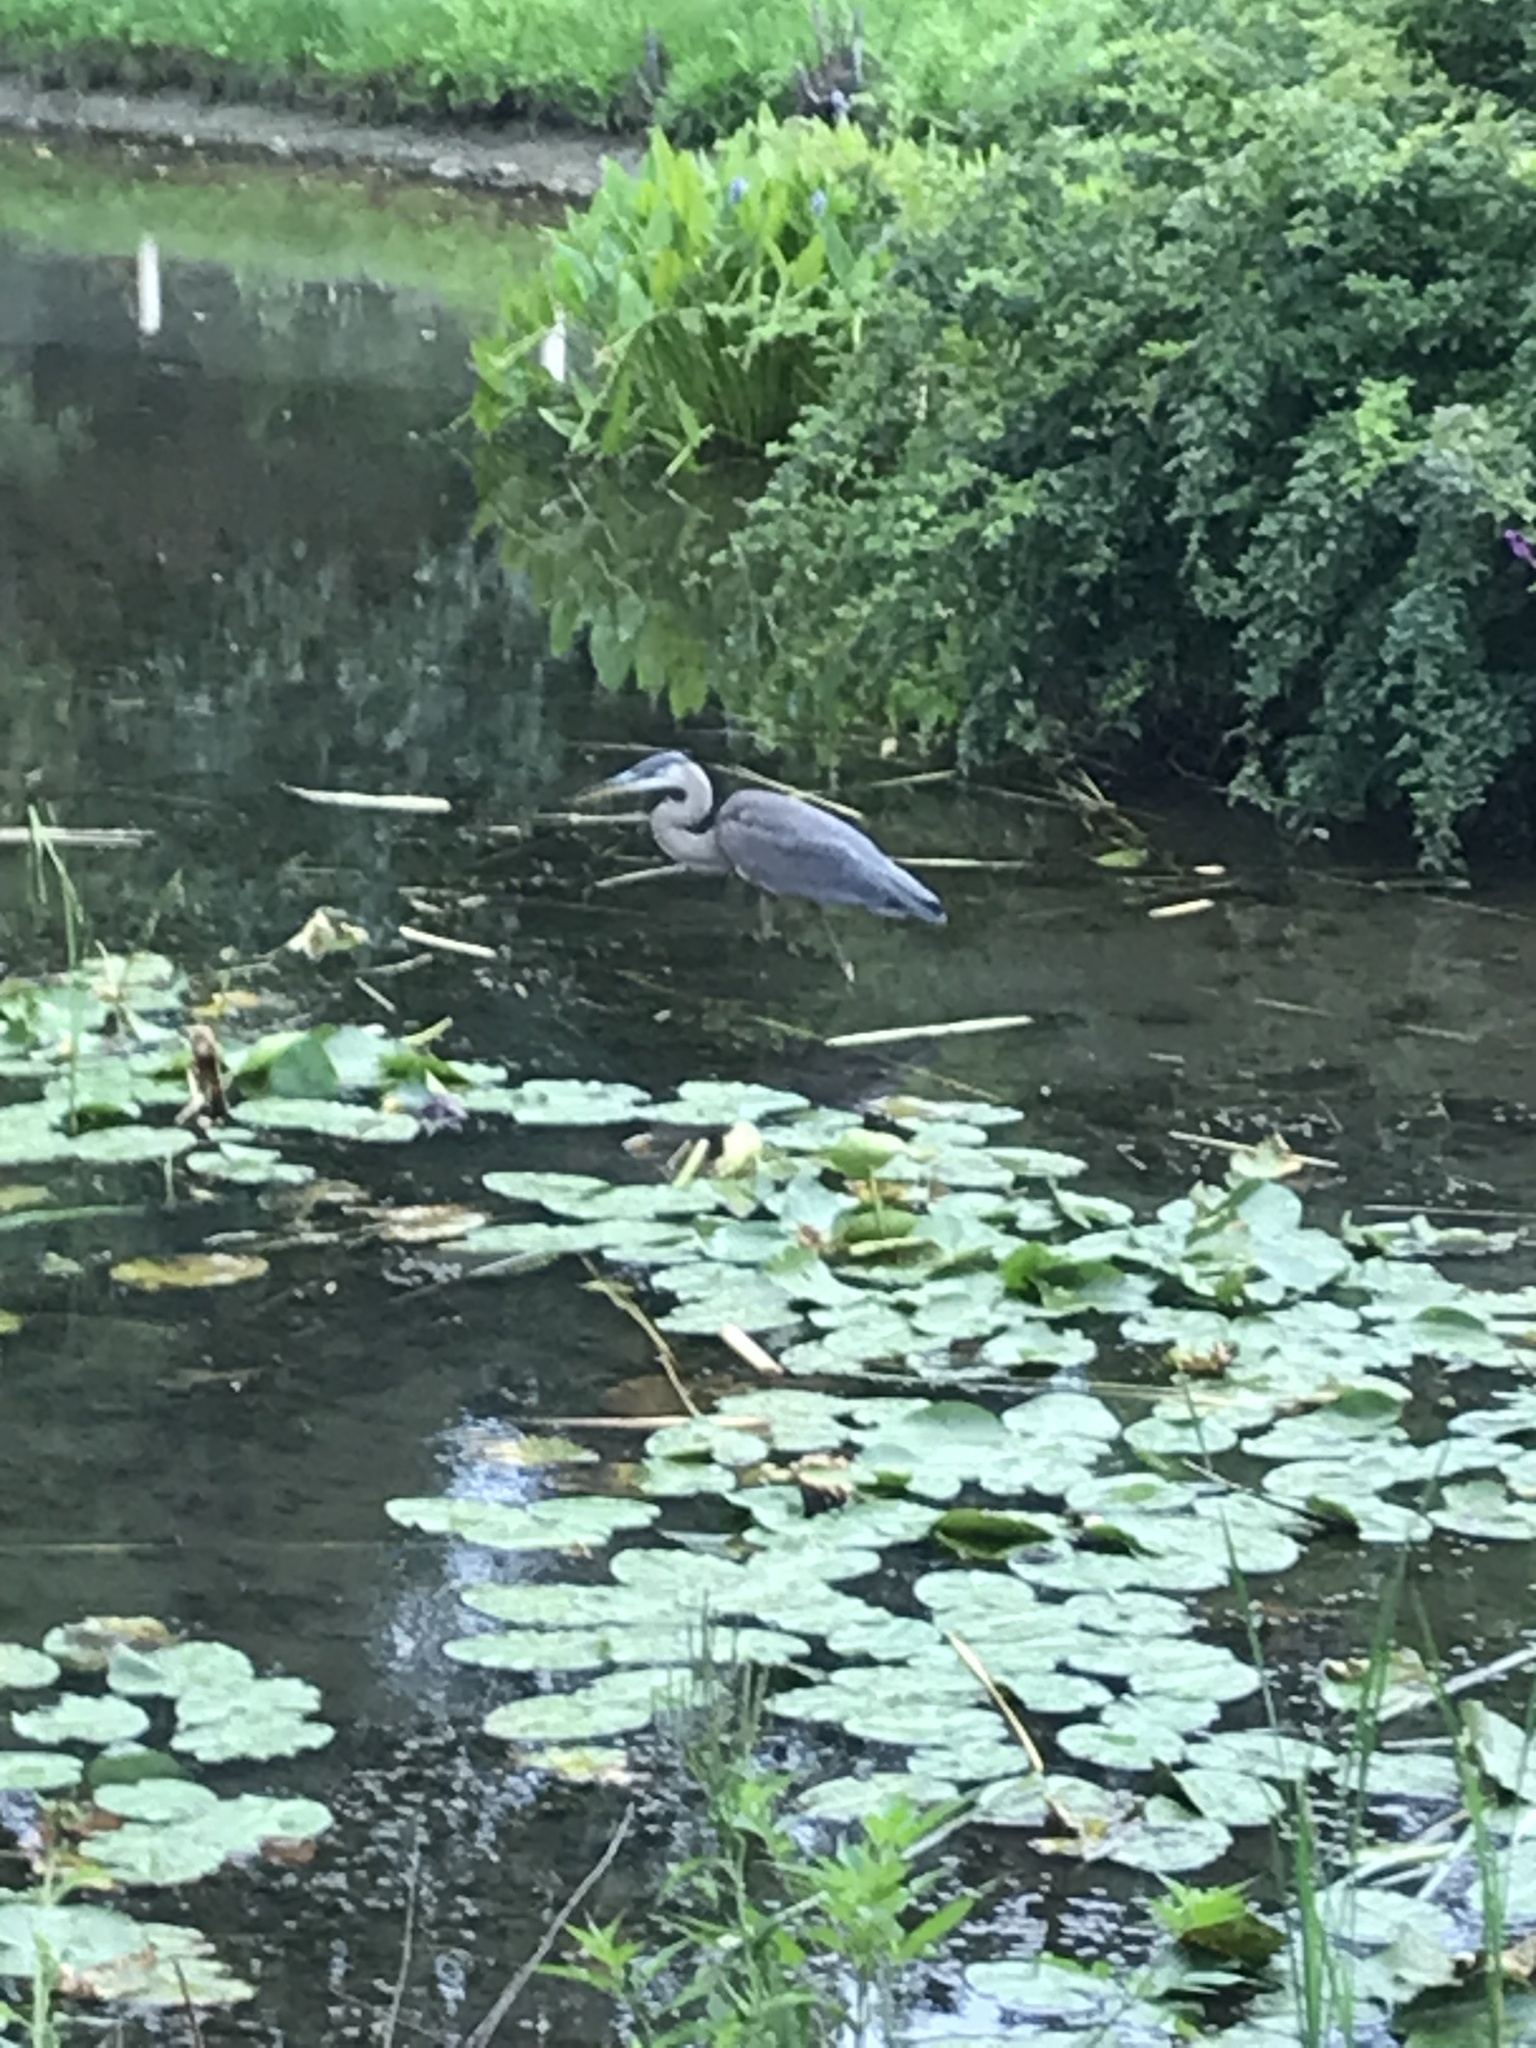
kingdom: Animalia
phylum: Chordata
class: Aves
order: Pelecaniformes
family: Ardeidae
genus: Ardea
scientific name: Ardea herodias
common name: Great blue heron
